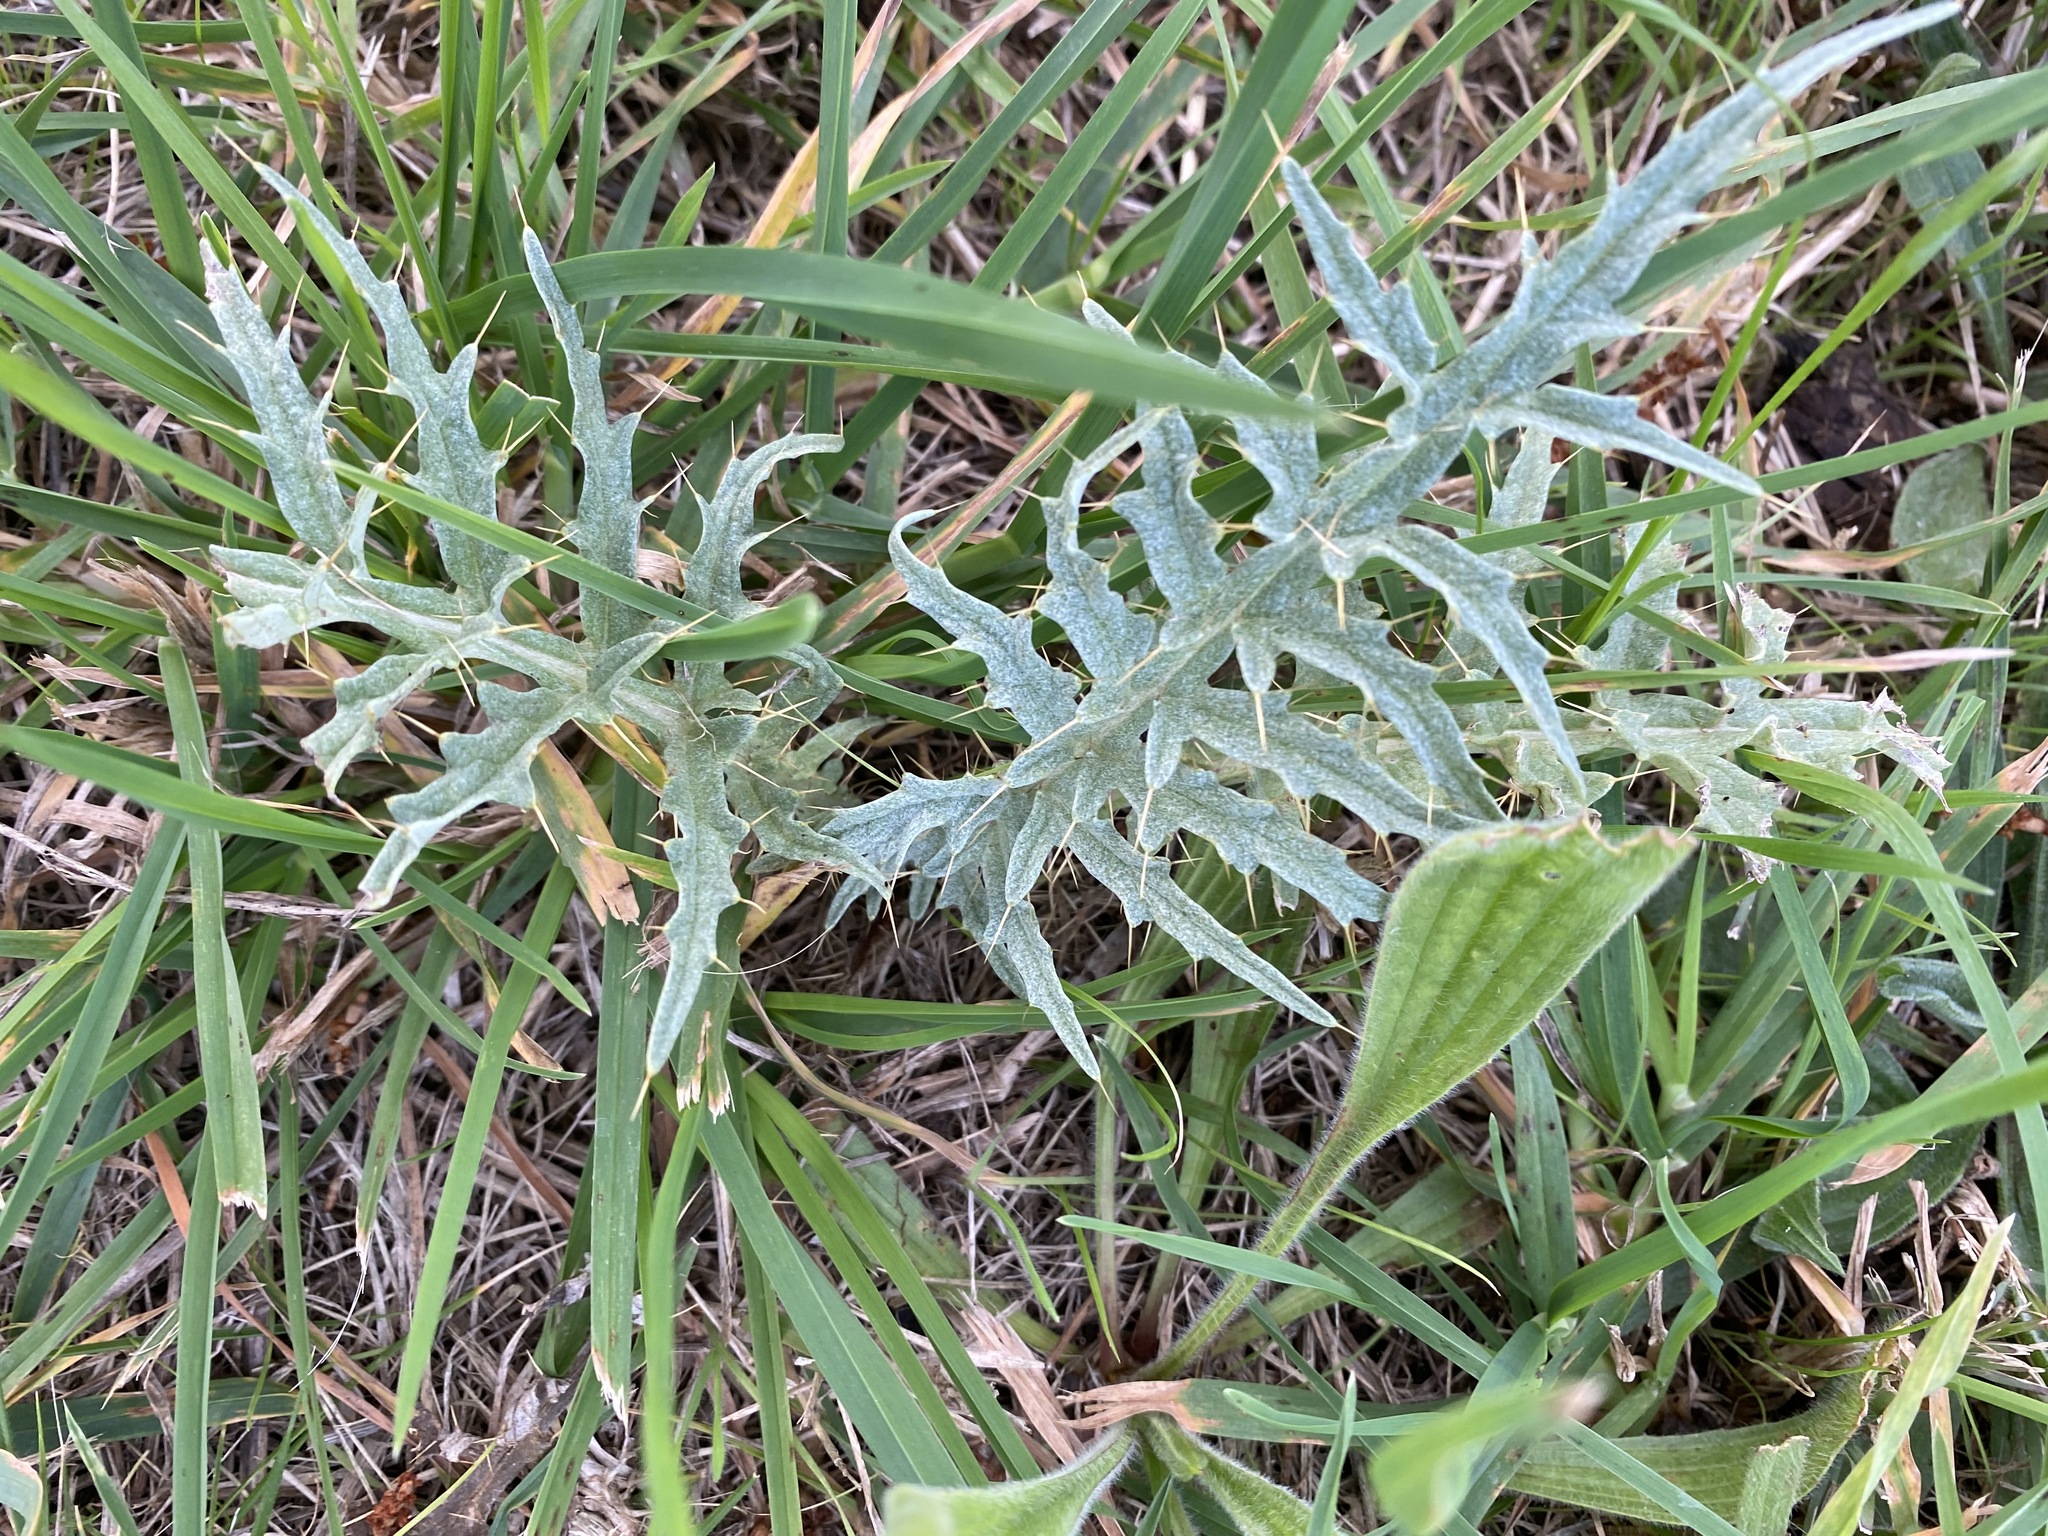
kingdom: Plantae
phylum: Tracheophyta
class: Magnoliopsida
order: Asterales
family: Asteraceae
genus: Cynara
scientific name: Cynara cardunculus
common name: Globe artichoke
